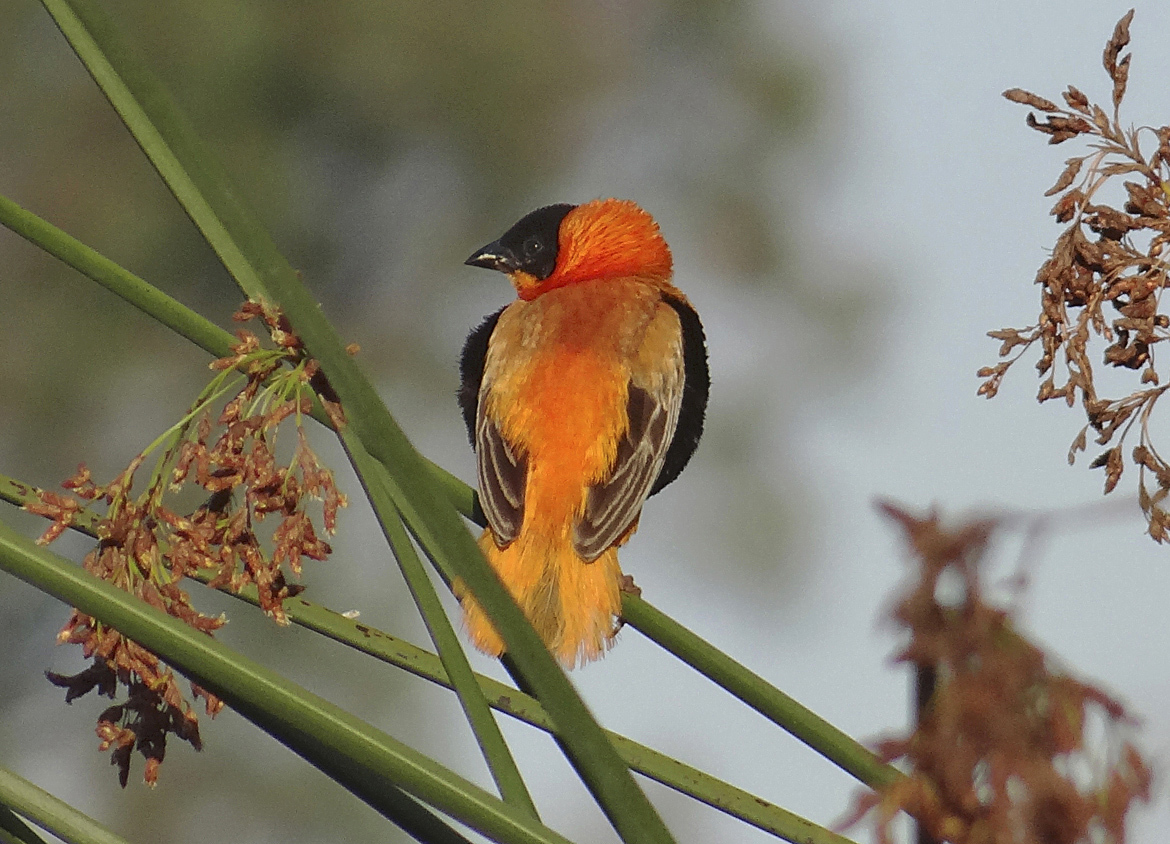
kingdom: Animalia
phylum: Chordata
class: Aves
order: Passeriformes
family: Ploceidae
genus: Euplectes
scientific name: Euplectes franciscanus
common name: Northern red bishop
